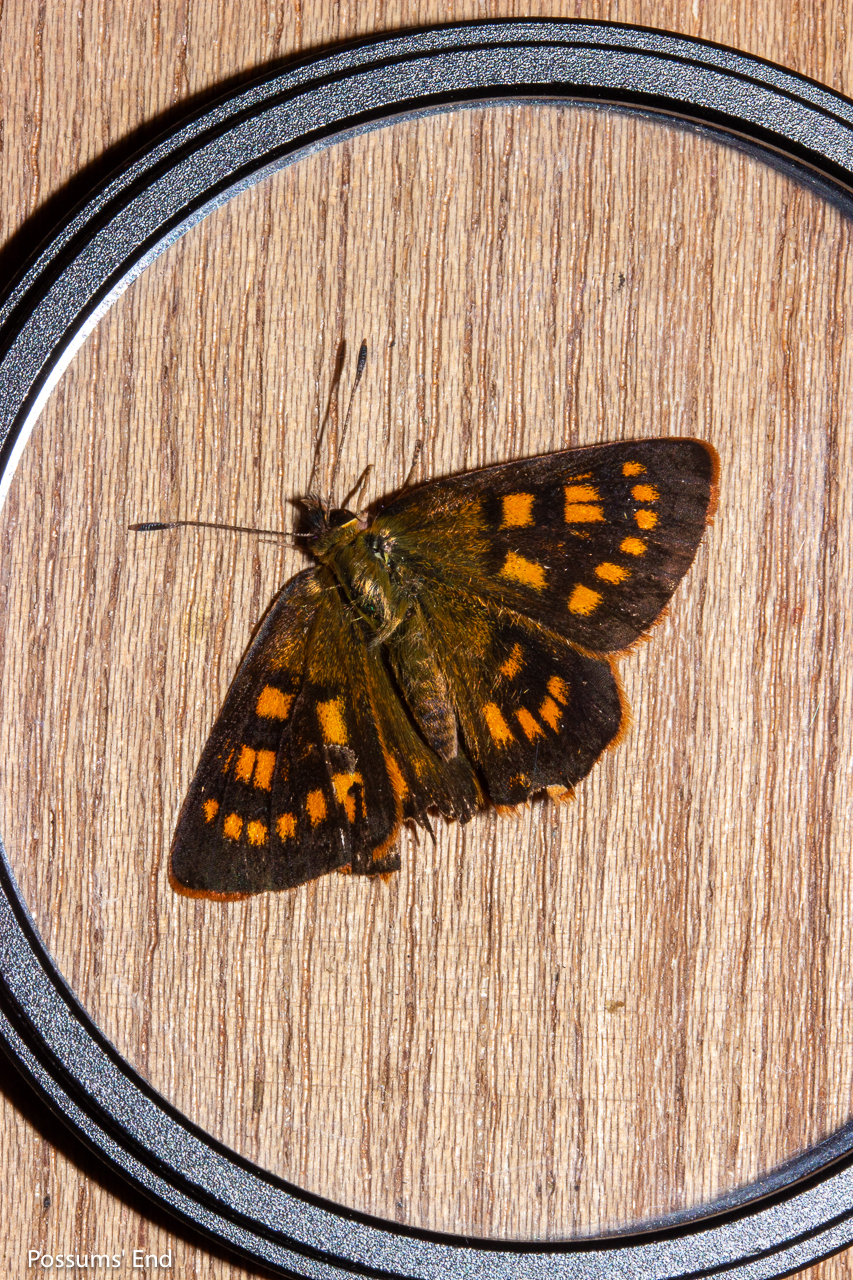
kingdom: Animalia
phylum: Arthropoda
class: Insecta
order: Lepidoptera
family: Lycaenidae
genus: Lycaena
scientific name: Lycaena feredayi
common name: Glade copper
